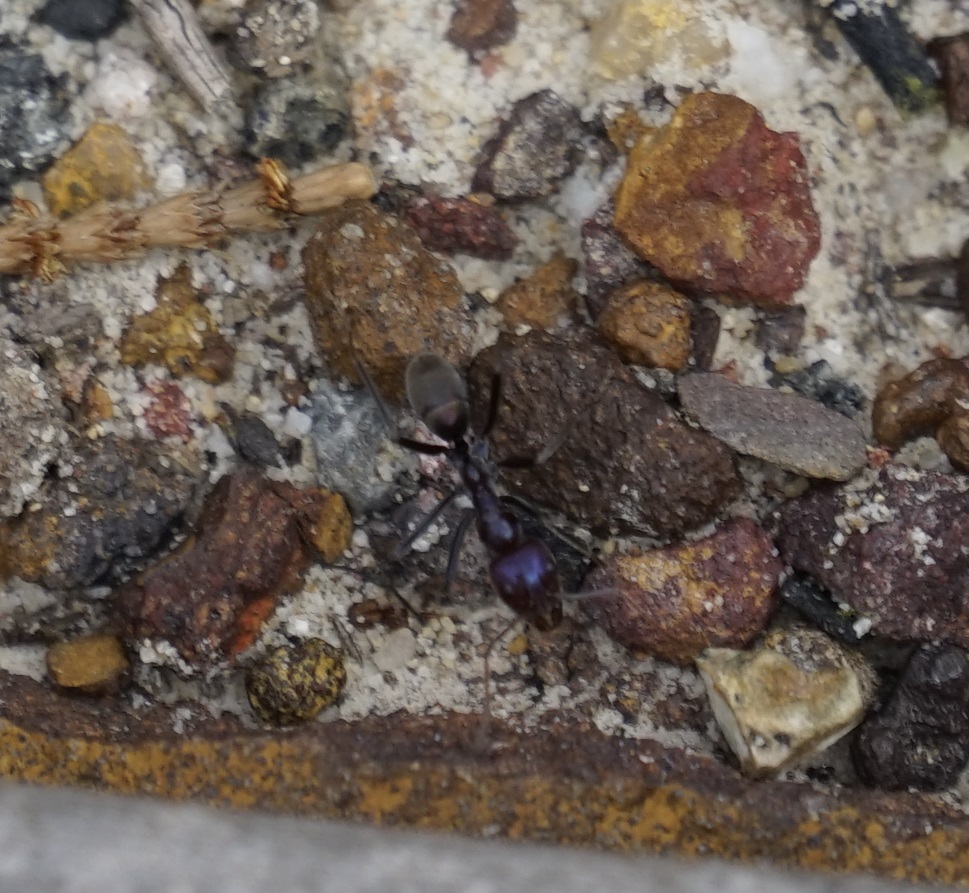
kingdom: Animalia
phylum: Arthropoda
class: Insecta
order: Hymenoptera
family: Formicidae
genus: Iridomyrmex
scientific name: Iridomyrmex purpureus
